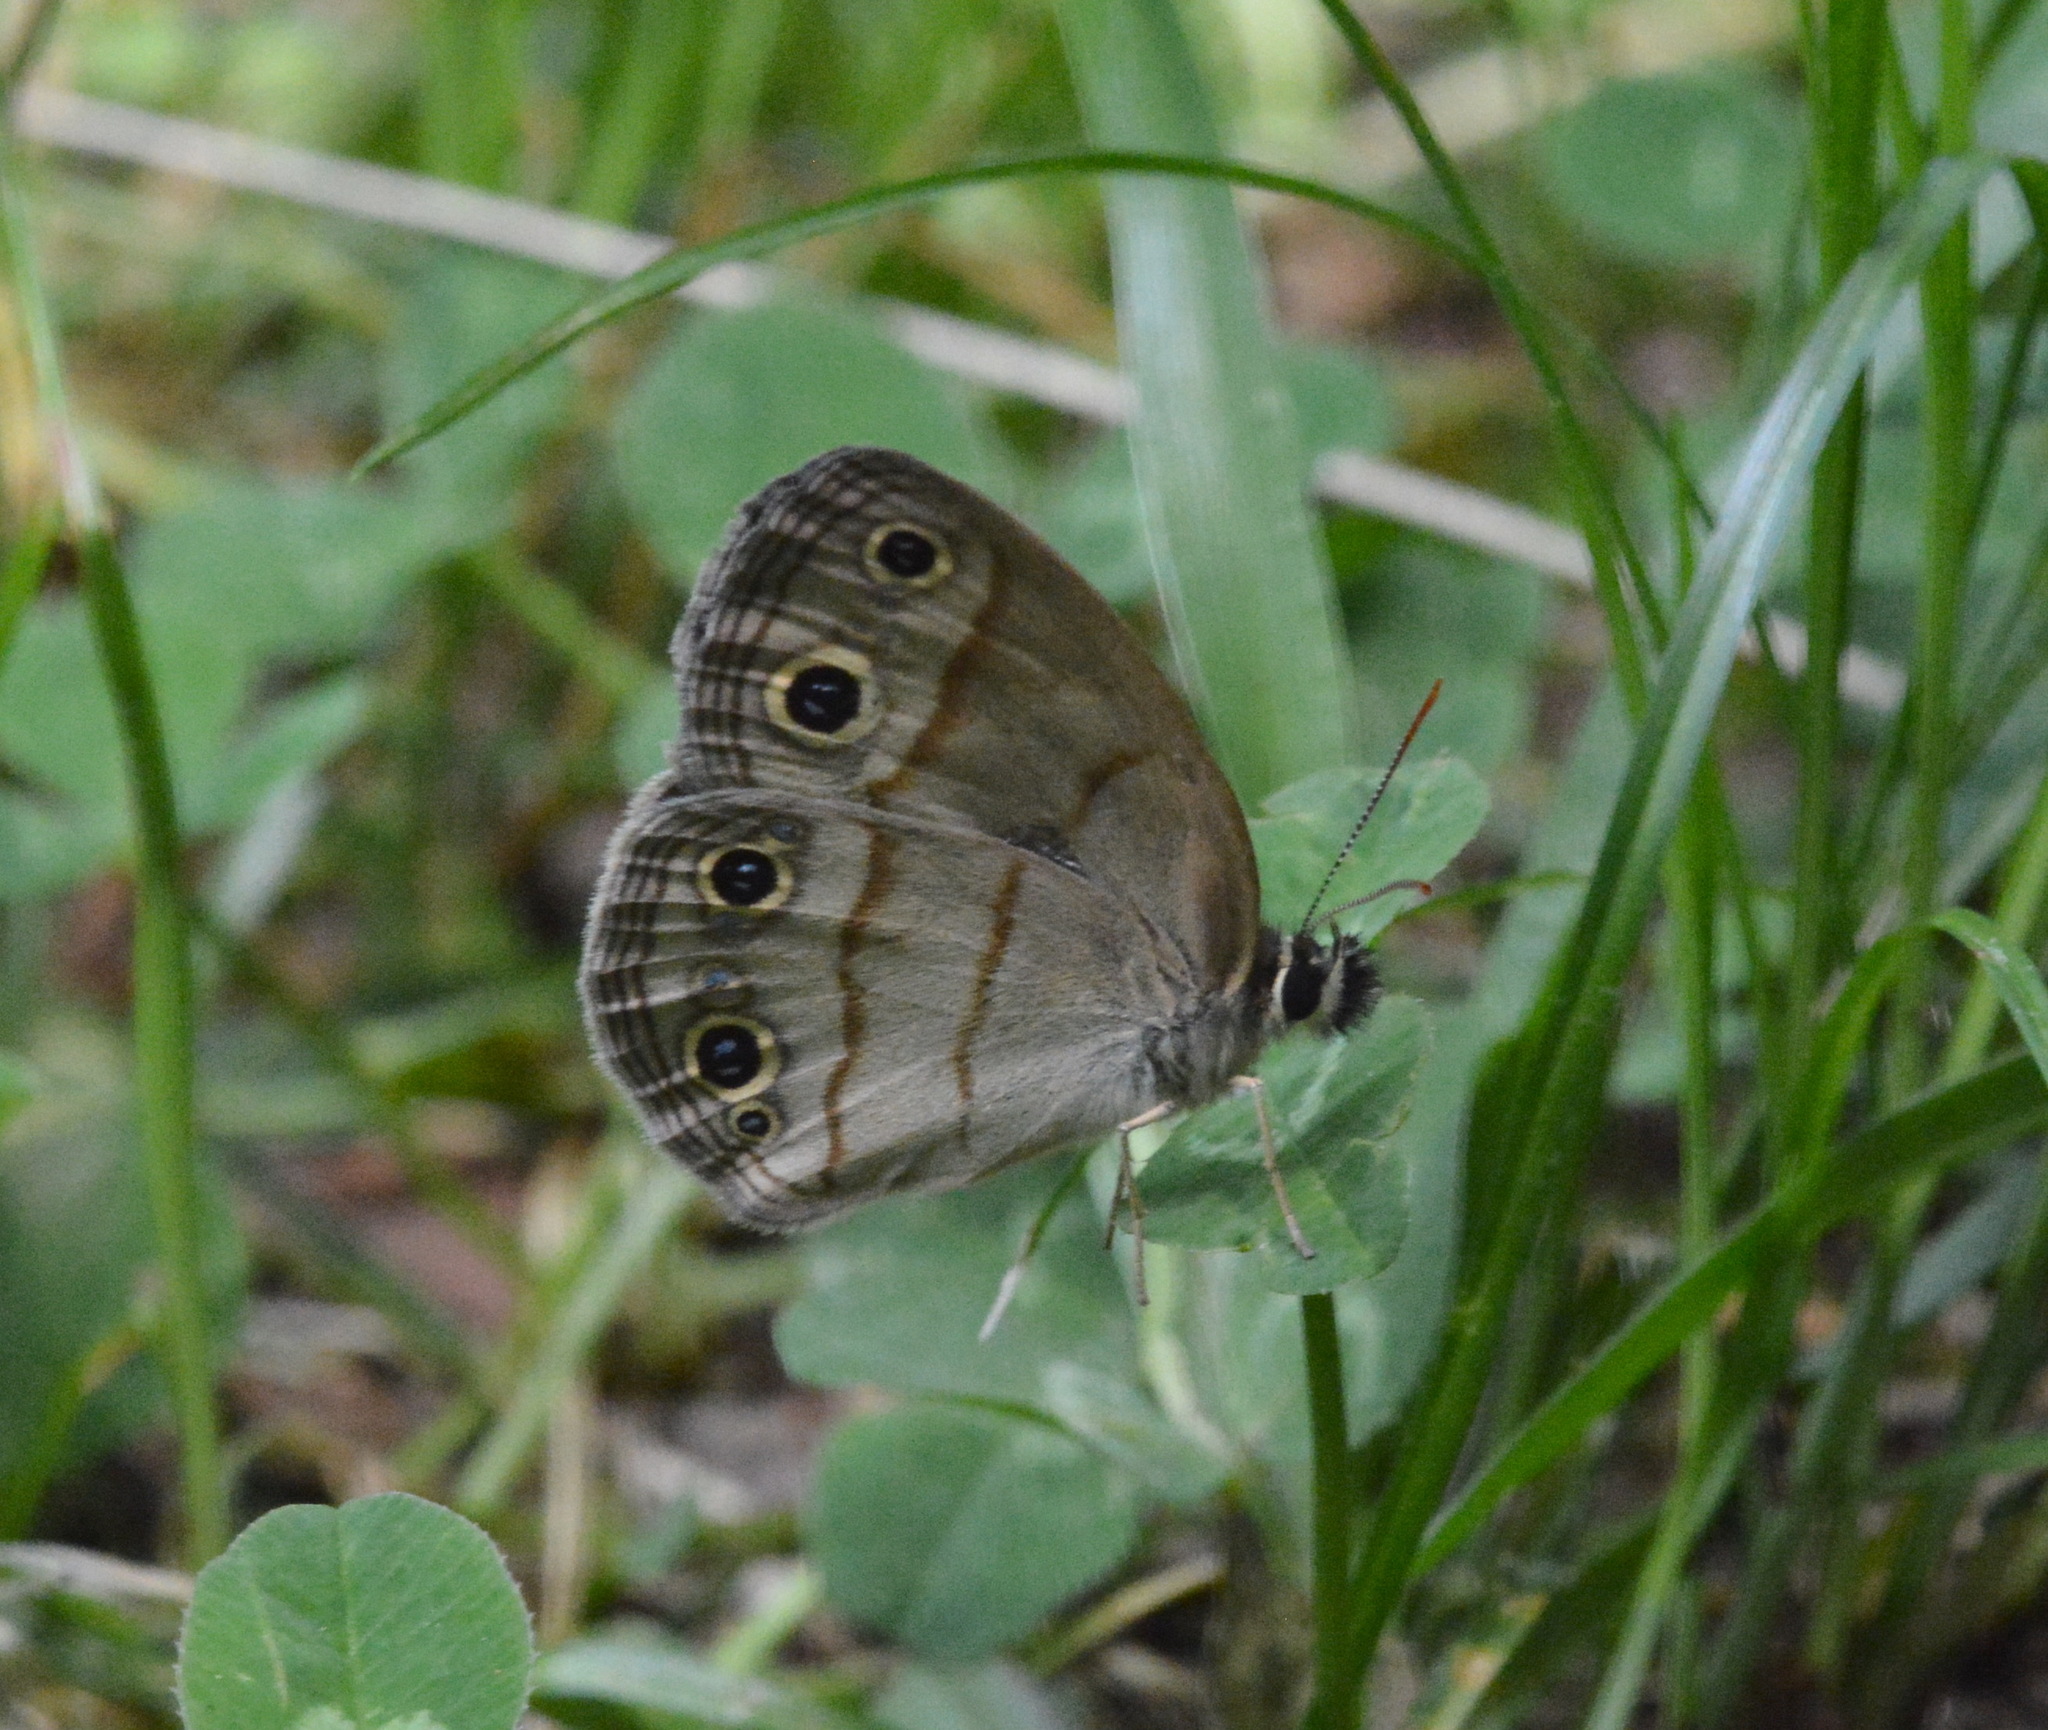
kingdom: Animalia
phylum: Arthropoda
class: Insecta
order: Lepidoptera
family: Nymphalidae
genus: Euptychia
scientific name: Euptychia cymela
